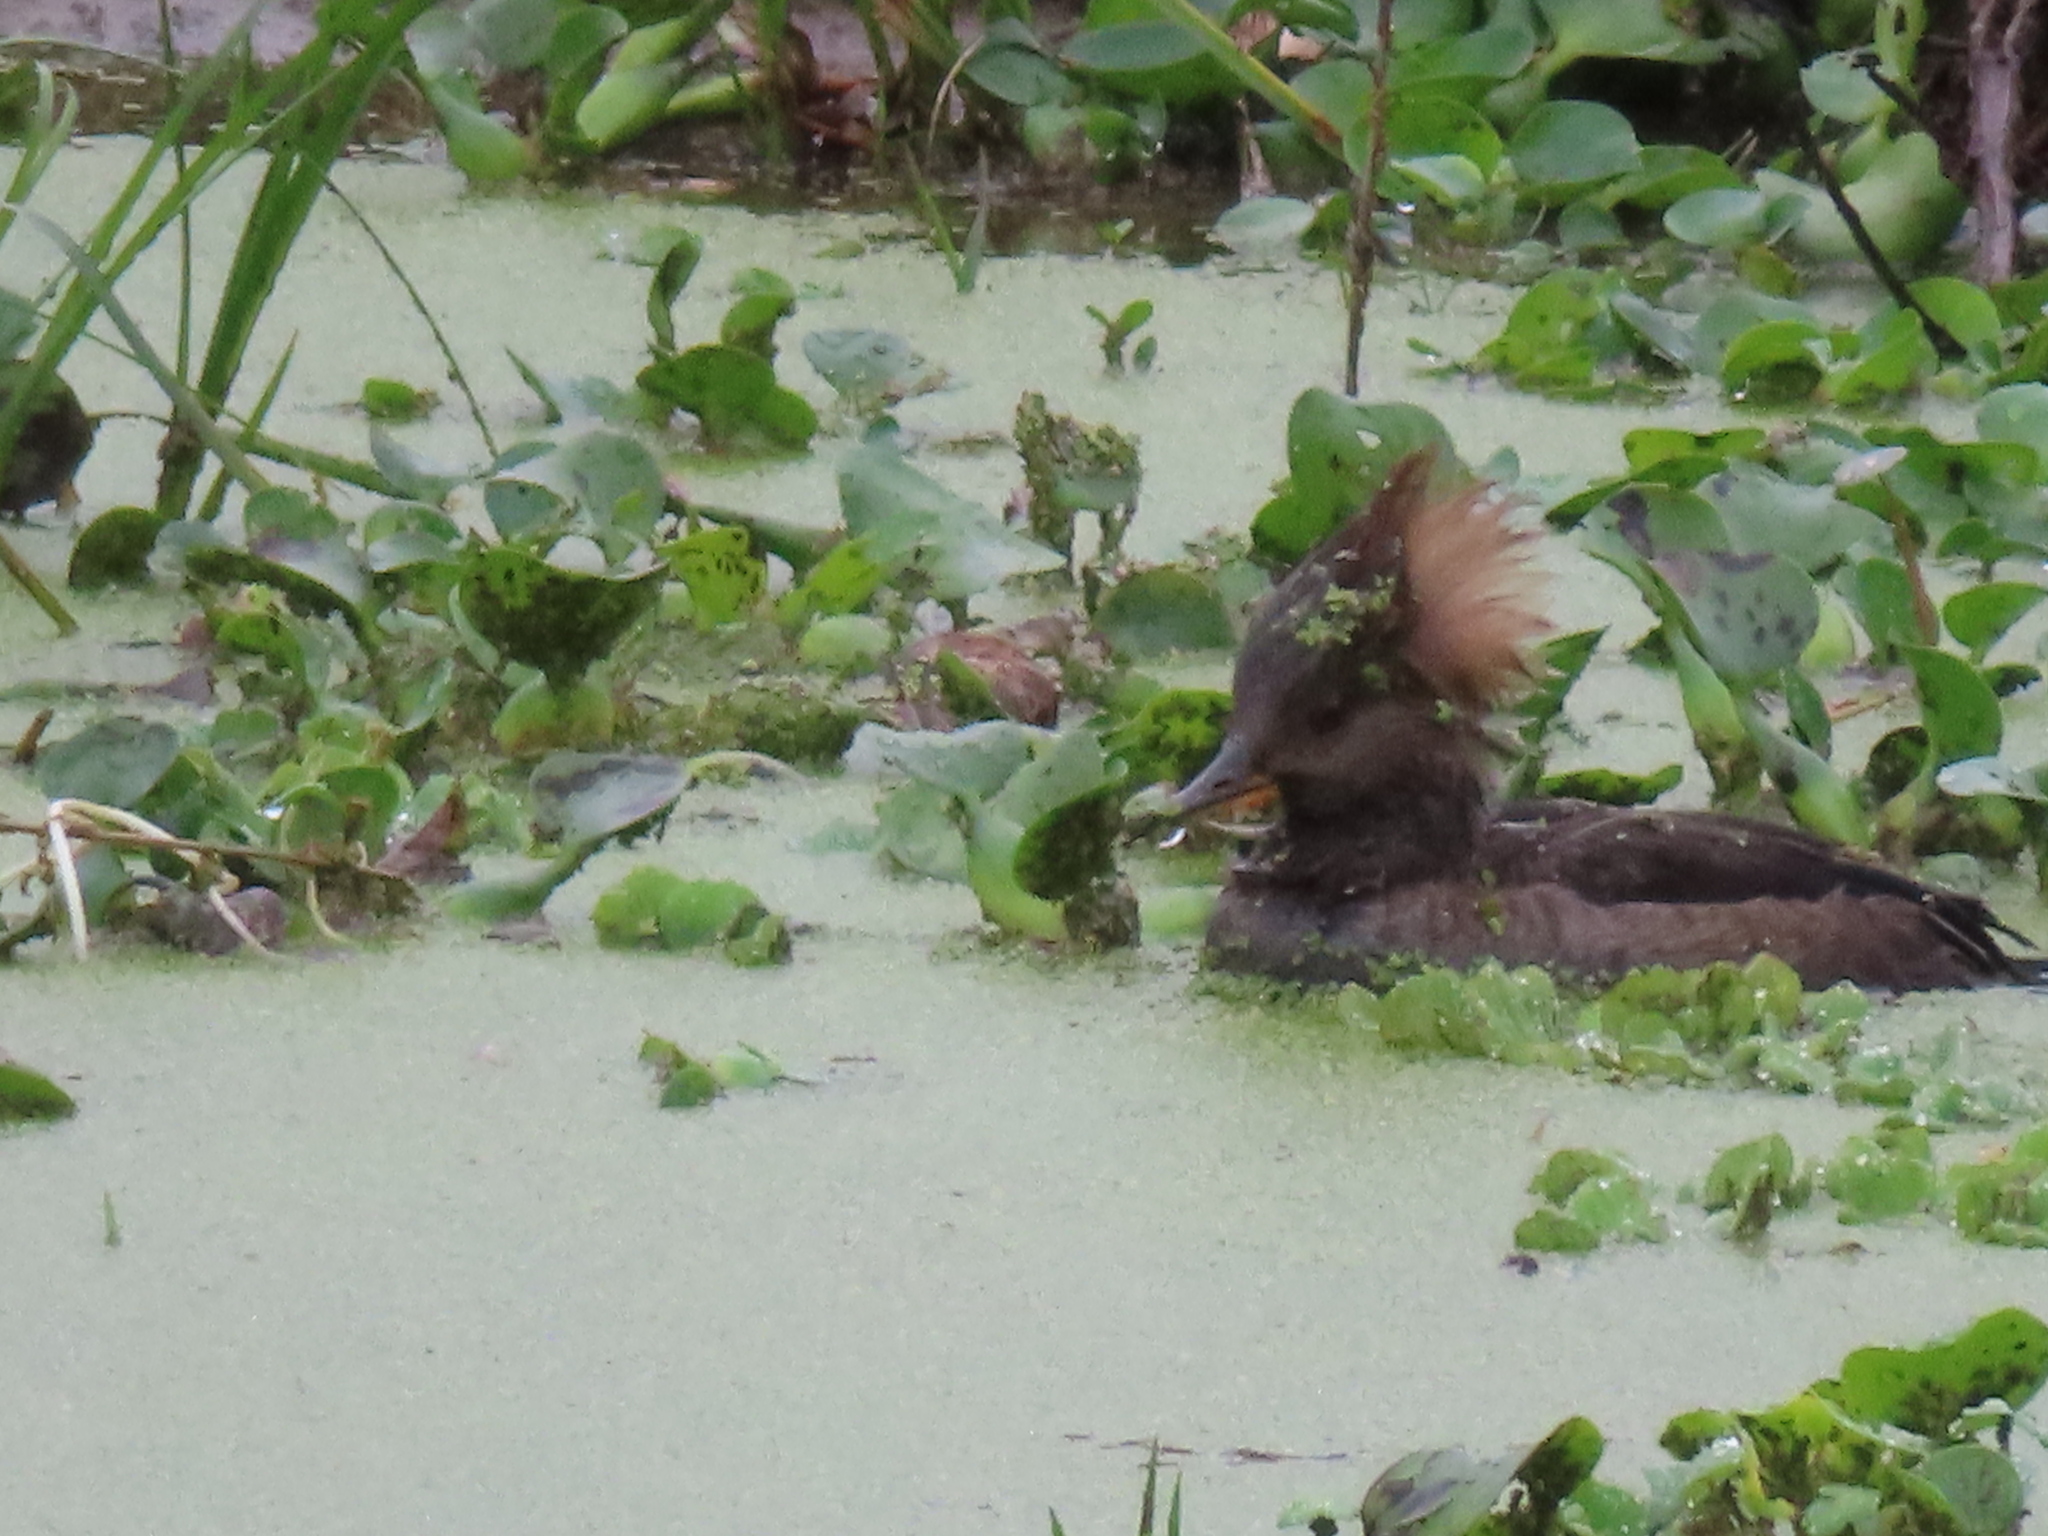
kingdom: Animalia
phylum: Chordata
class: Aves
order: Anseriformes
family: Anatidae
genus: Lophodytes
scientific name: Lophodytes cucullatus
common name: Hooded merganser
